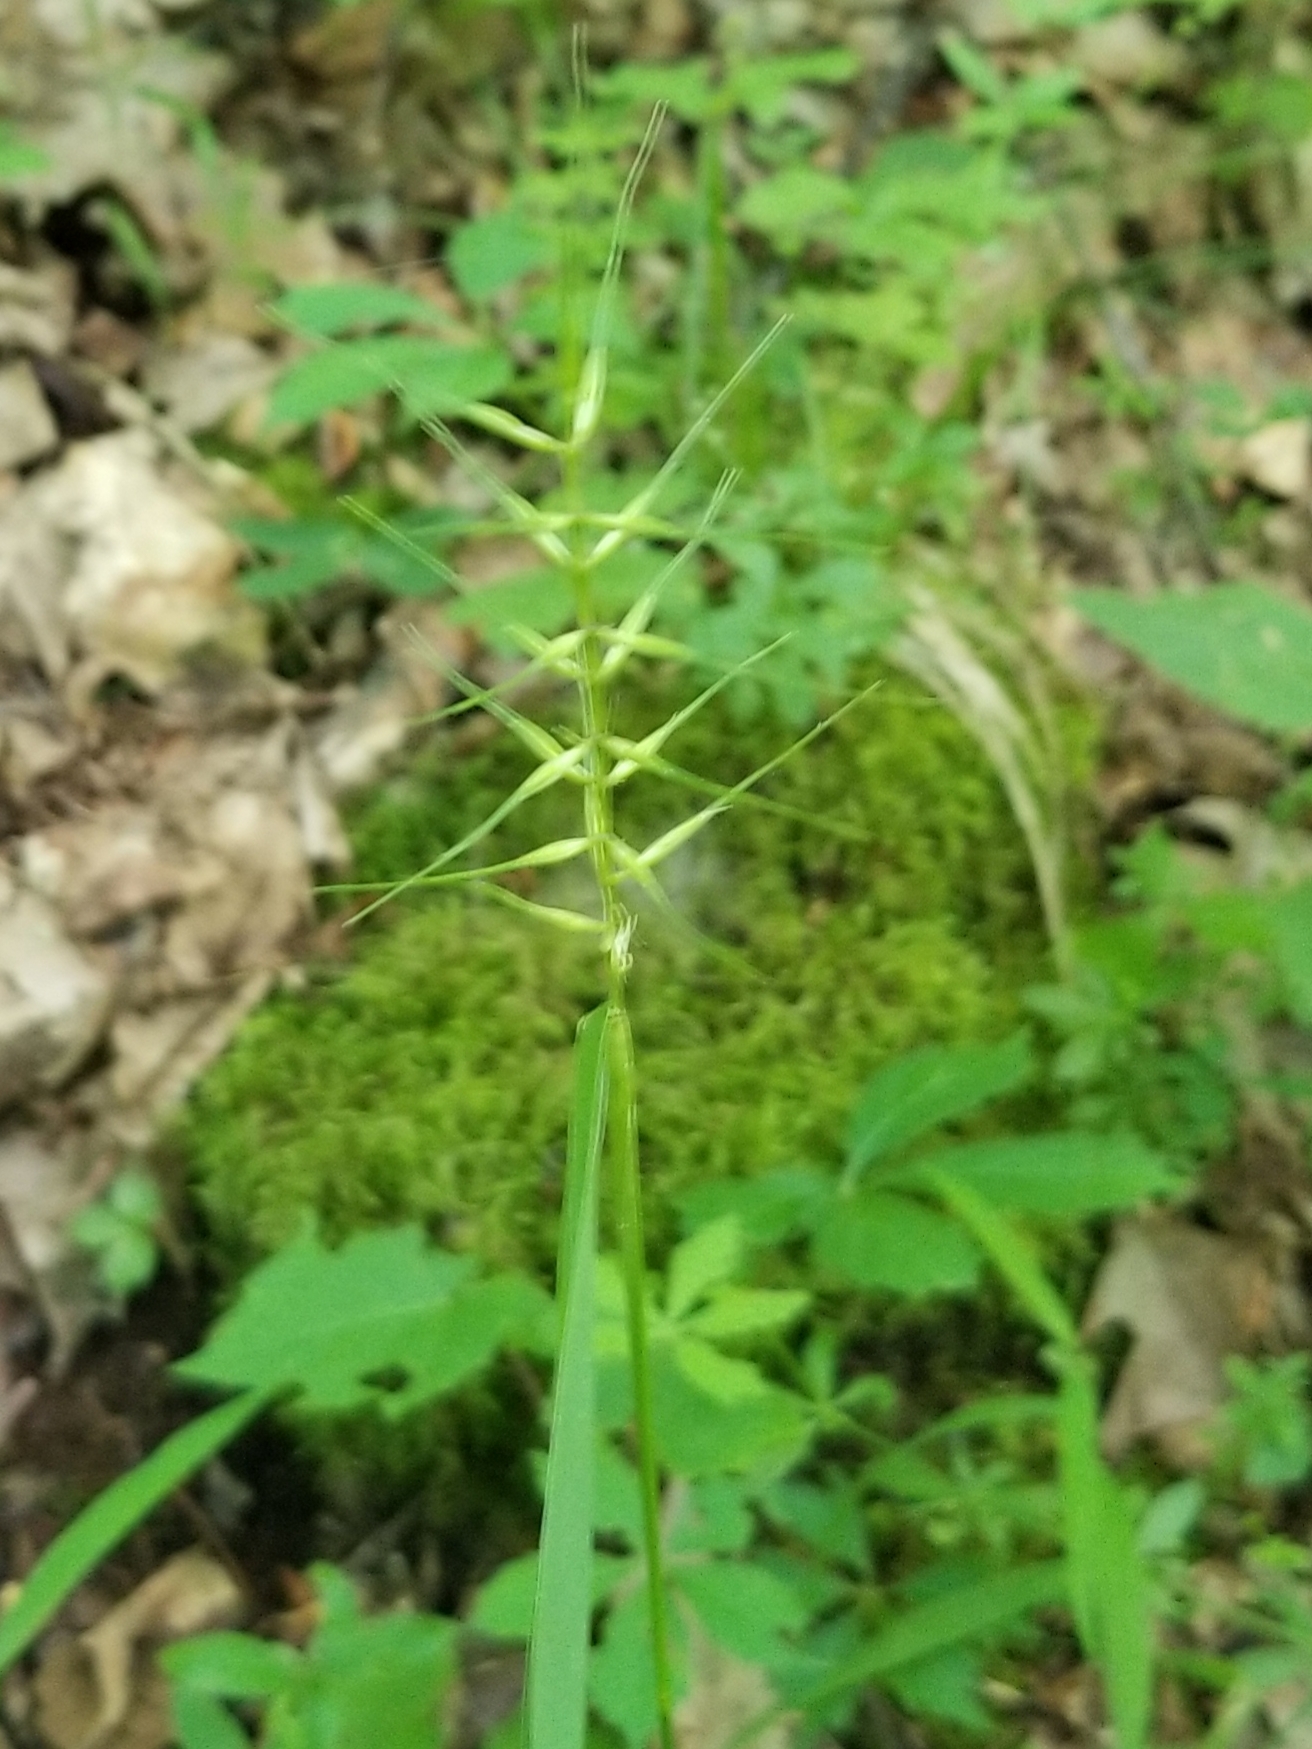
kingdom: Plantae
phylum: Tracheophyta
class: Liliopsida
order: Poales
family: Poaceae
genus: Elymus
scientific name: Elymus hystrix
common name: Bottlebrush grass
